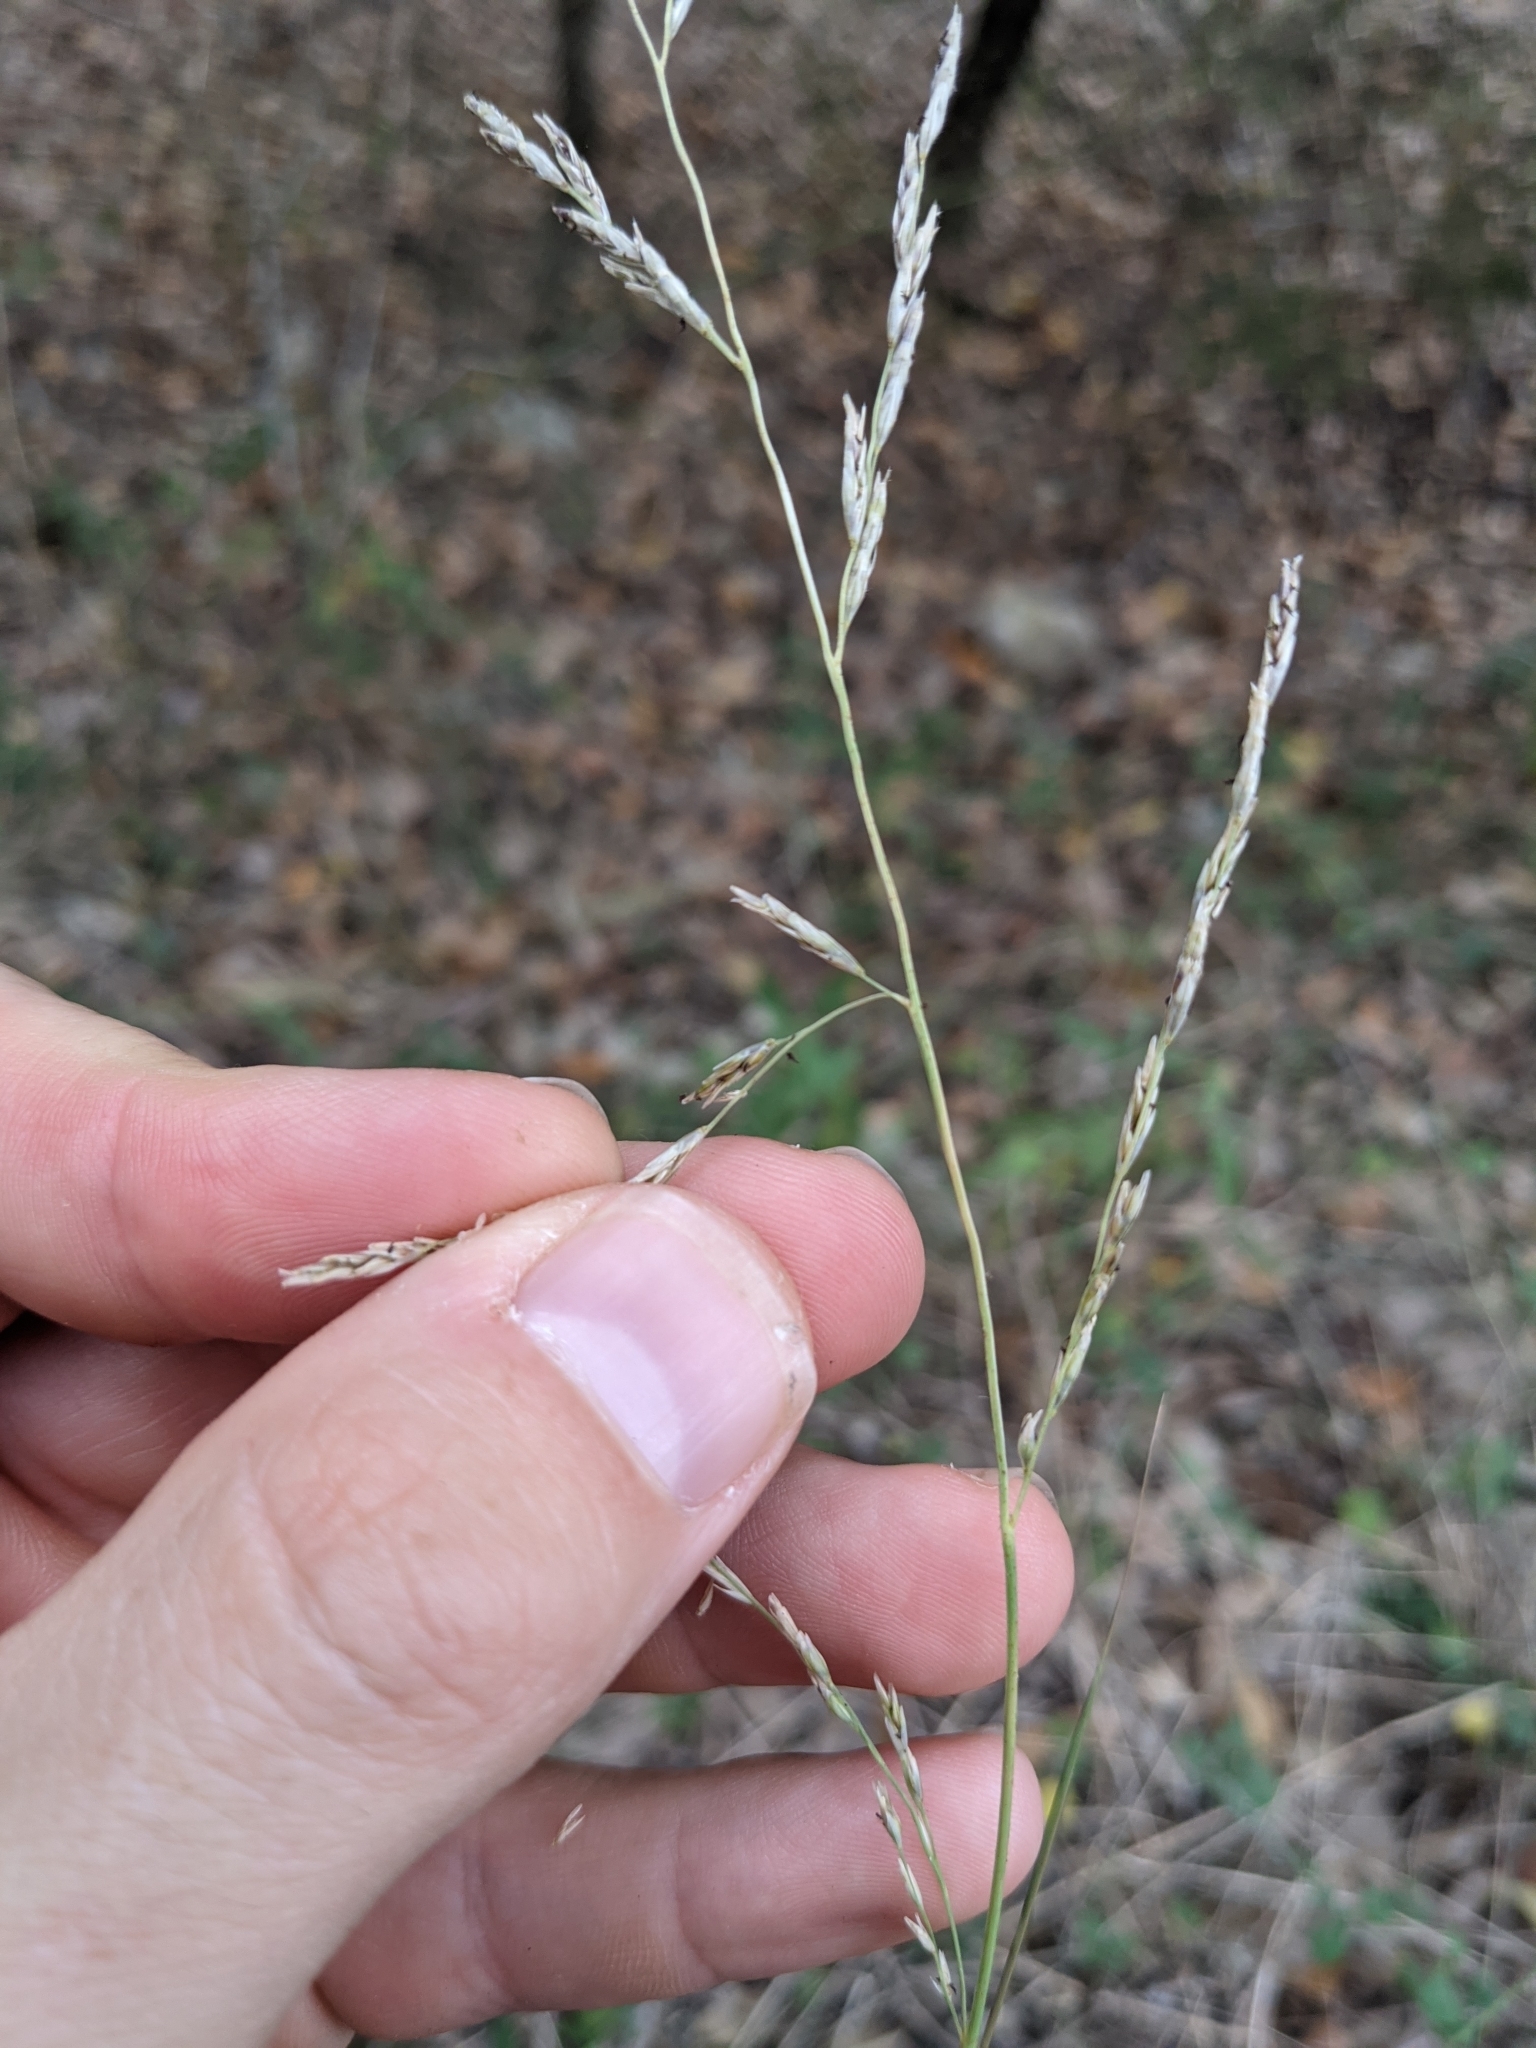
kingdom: Plantae
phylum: Tracheophyta
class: Liliopsida
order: Poales
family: Poaceae
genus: Tridentopsis
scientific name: Tridentopsis buckleyana
